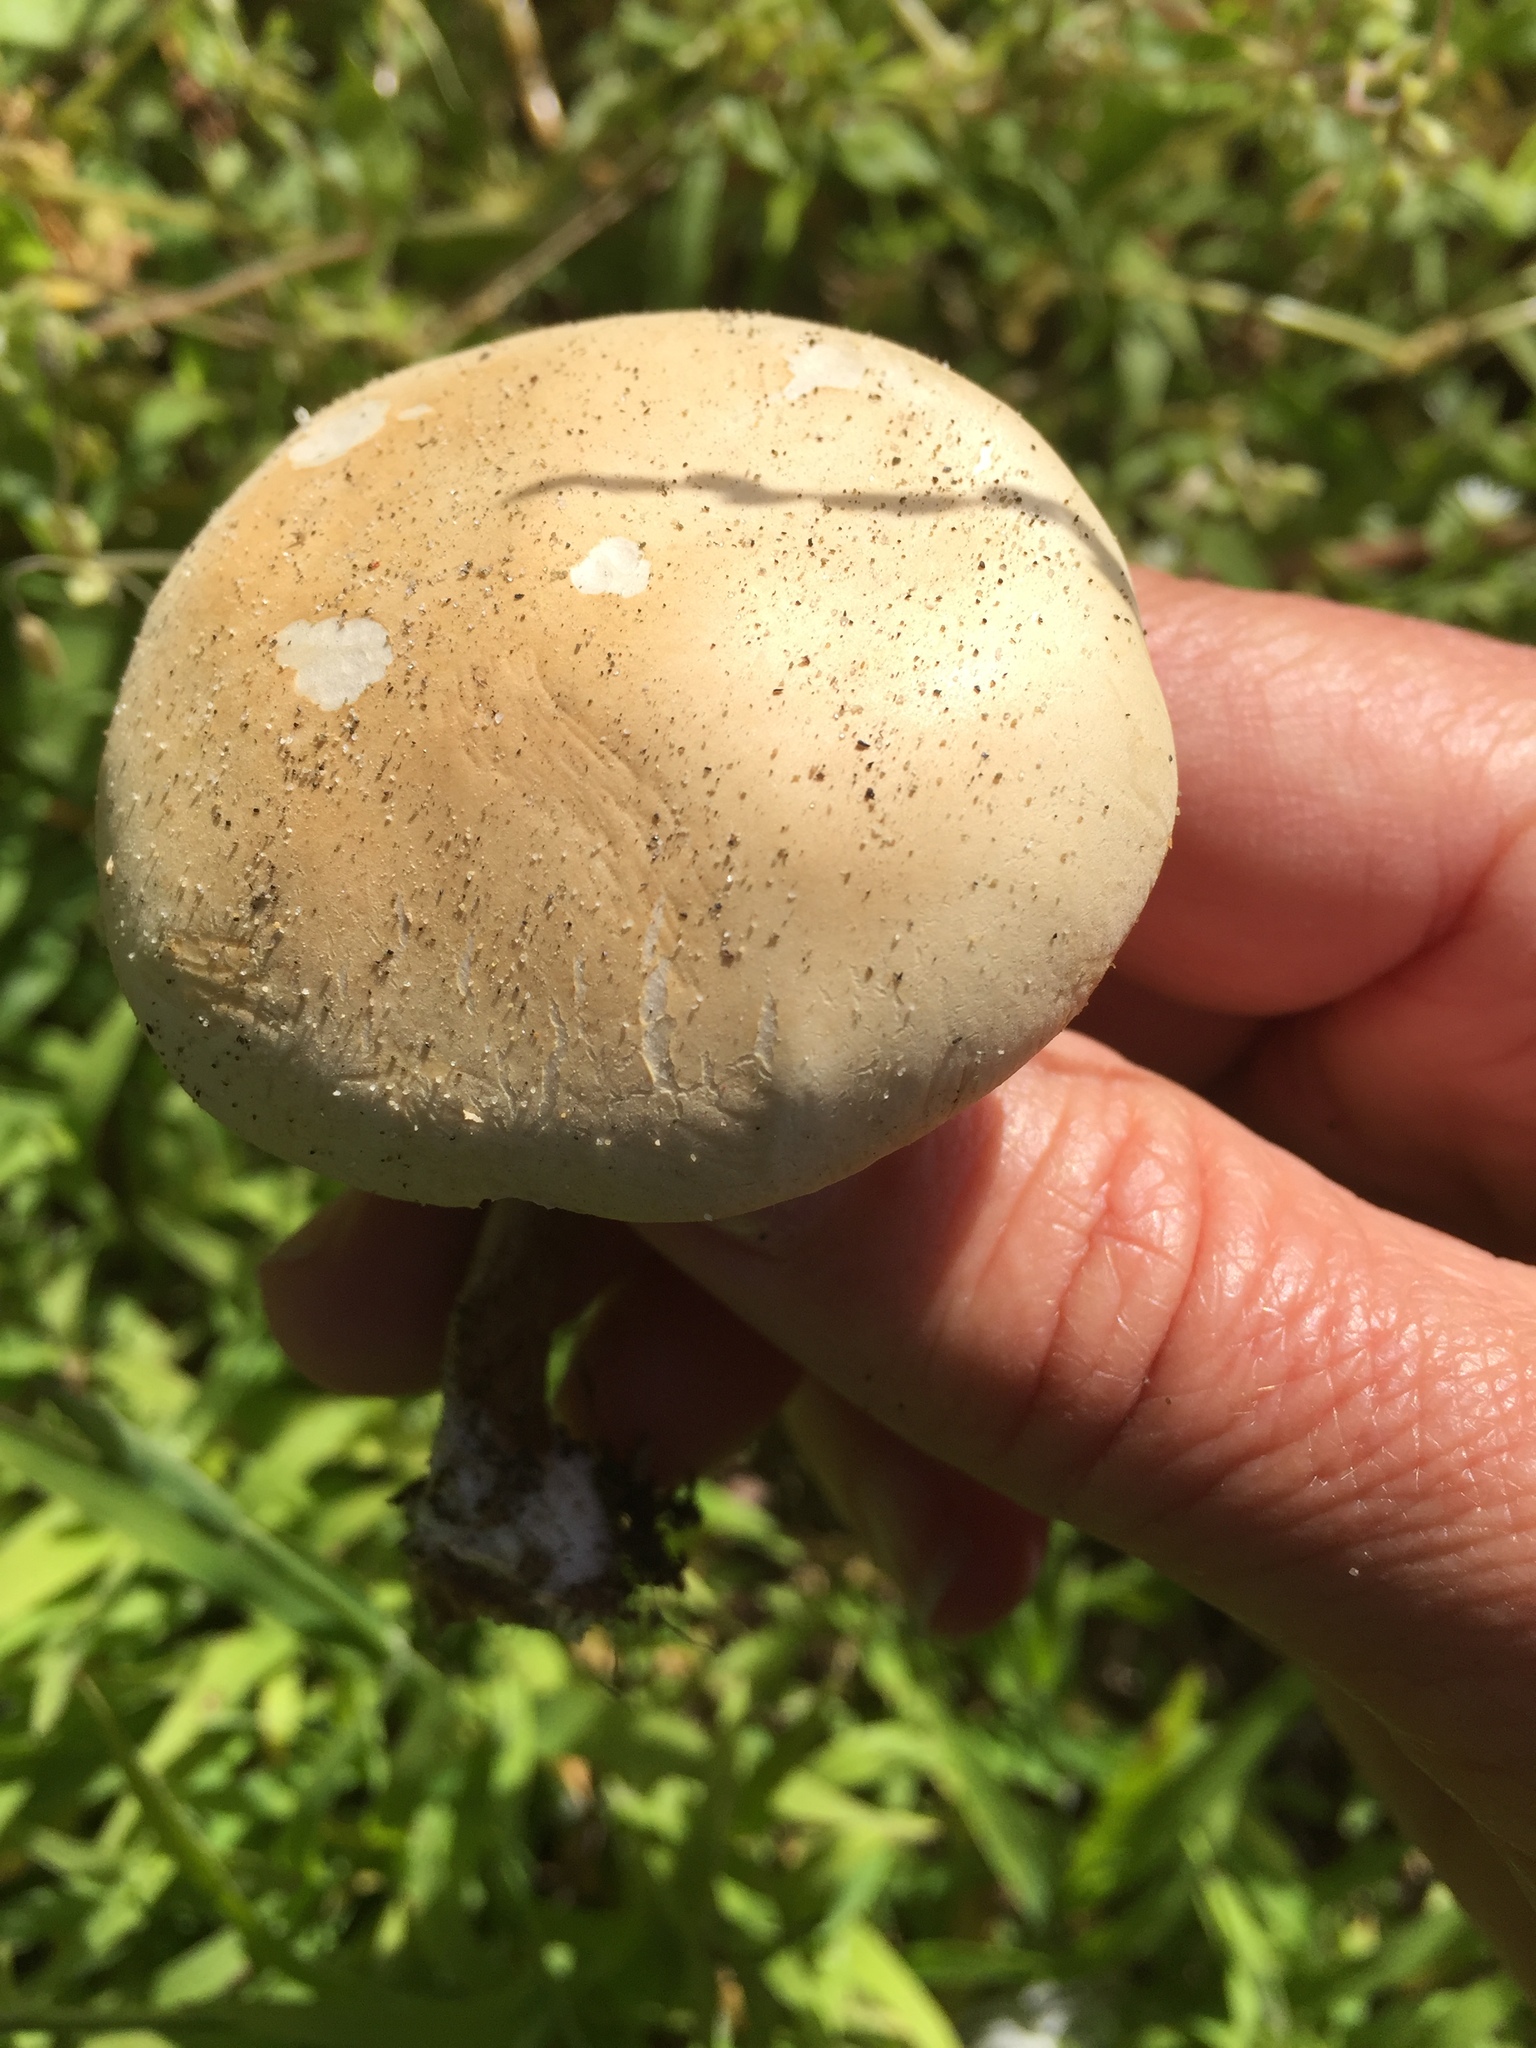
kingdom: Fungi
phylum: Basidiomycota
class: Agaricomycetes
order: Agaricales
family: Strophariaceae
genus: Agrocybe
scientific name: Agrocybe putaminum
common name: Mulch fieldcap
